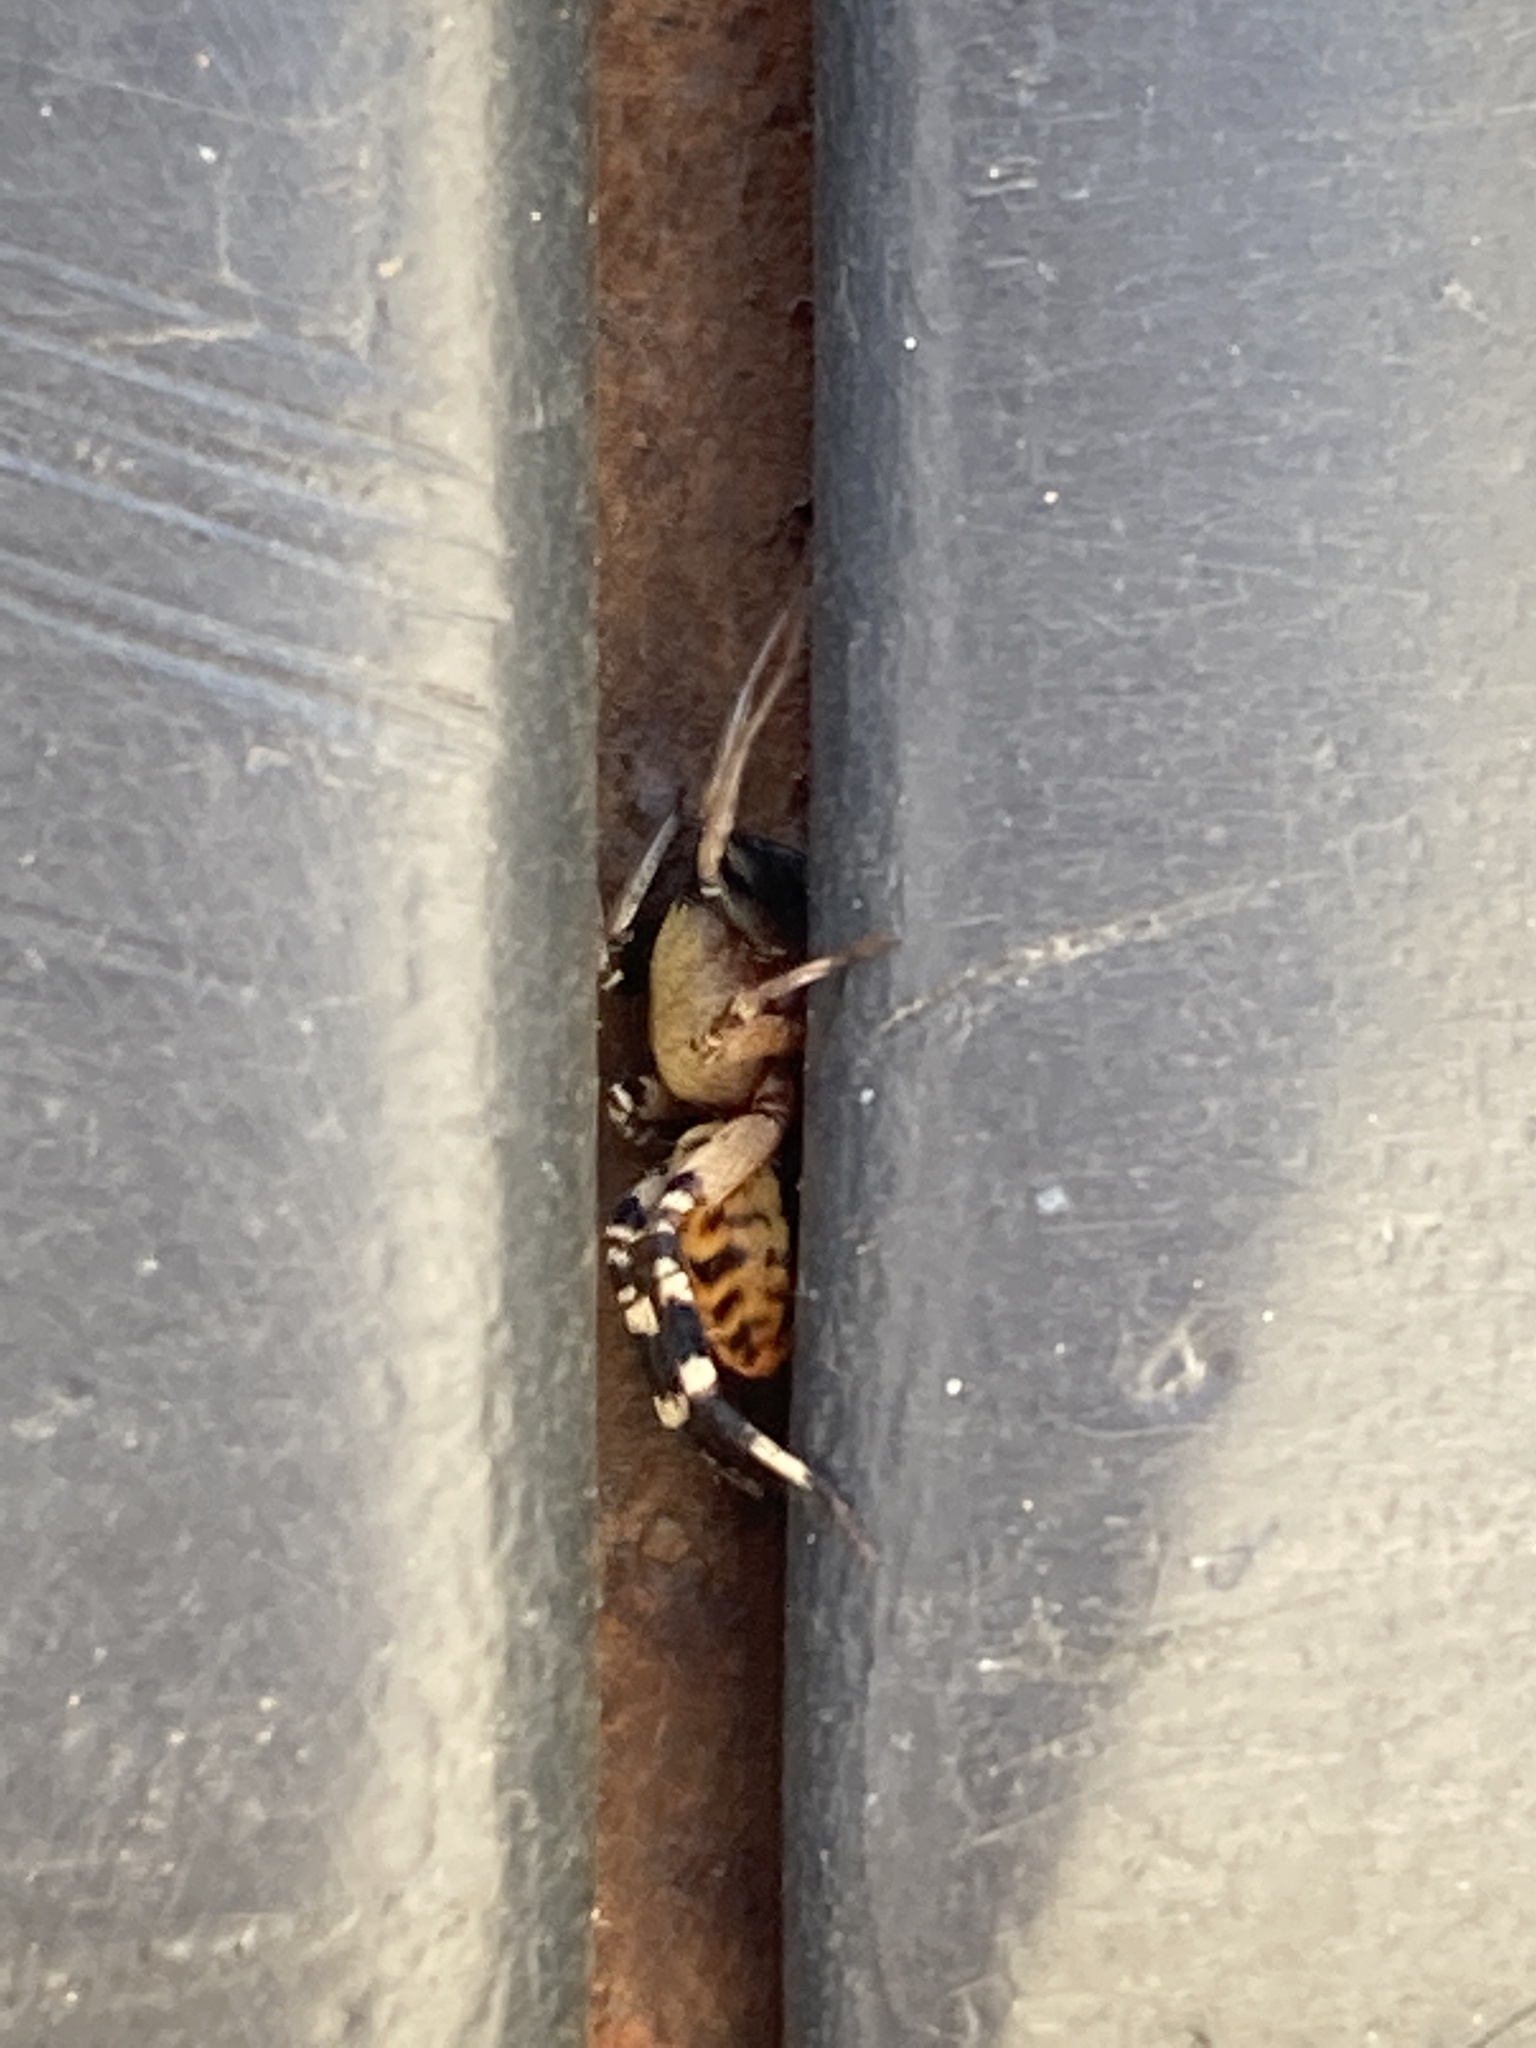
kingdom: Animalia
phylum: Arthropoda
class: Arachnida
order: Araneae
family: Corinnidae
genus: Castianeira
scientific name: Castianeira amoena
